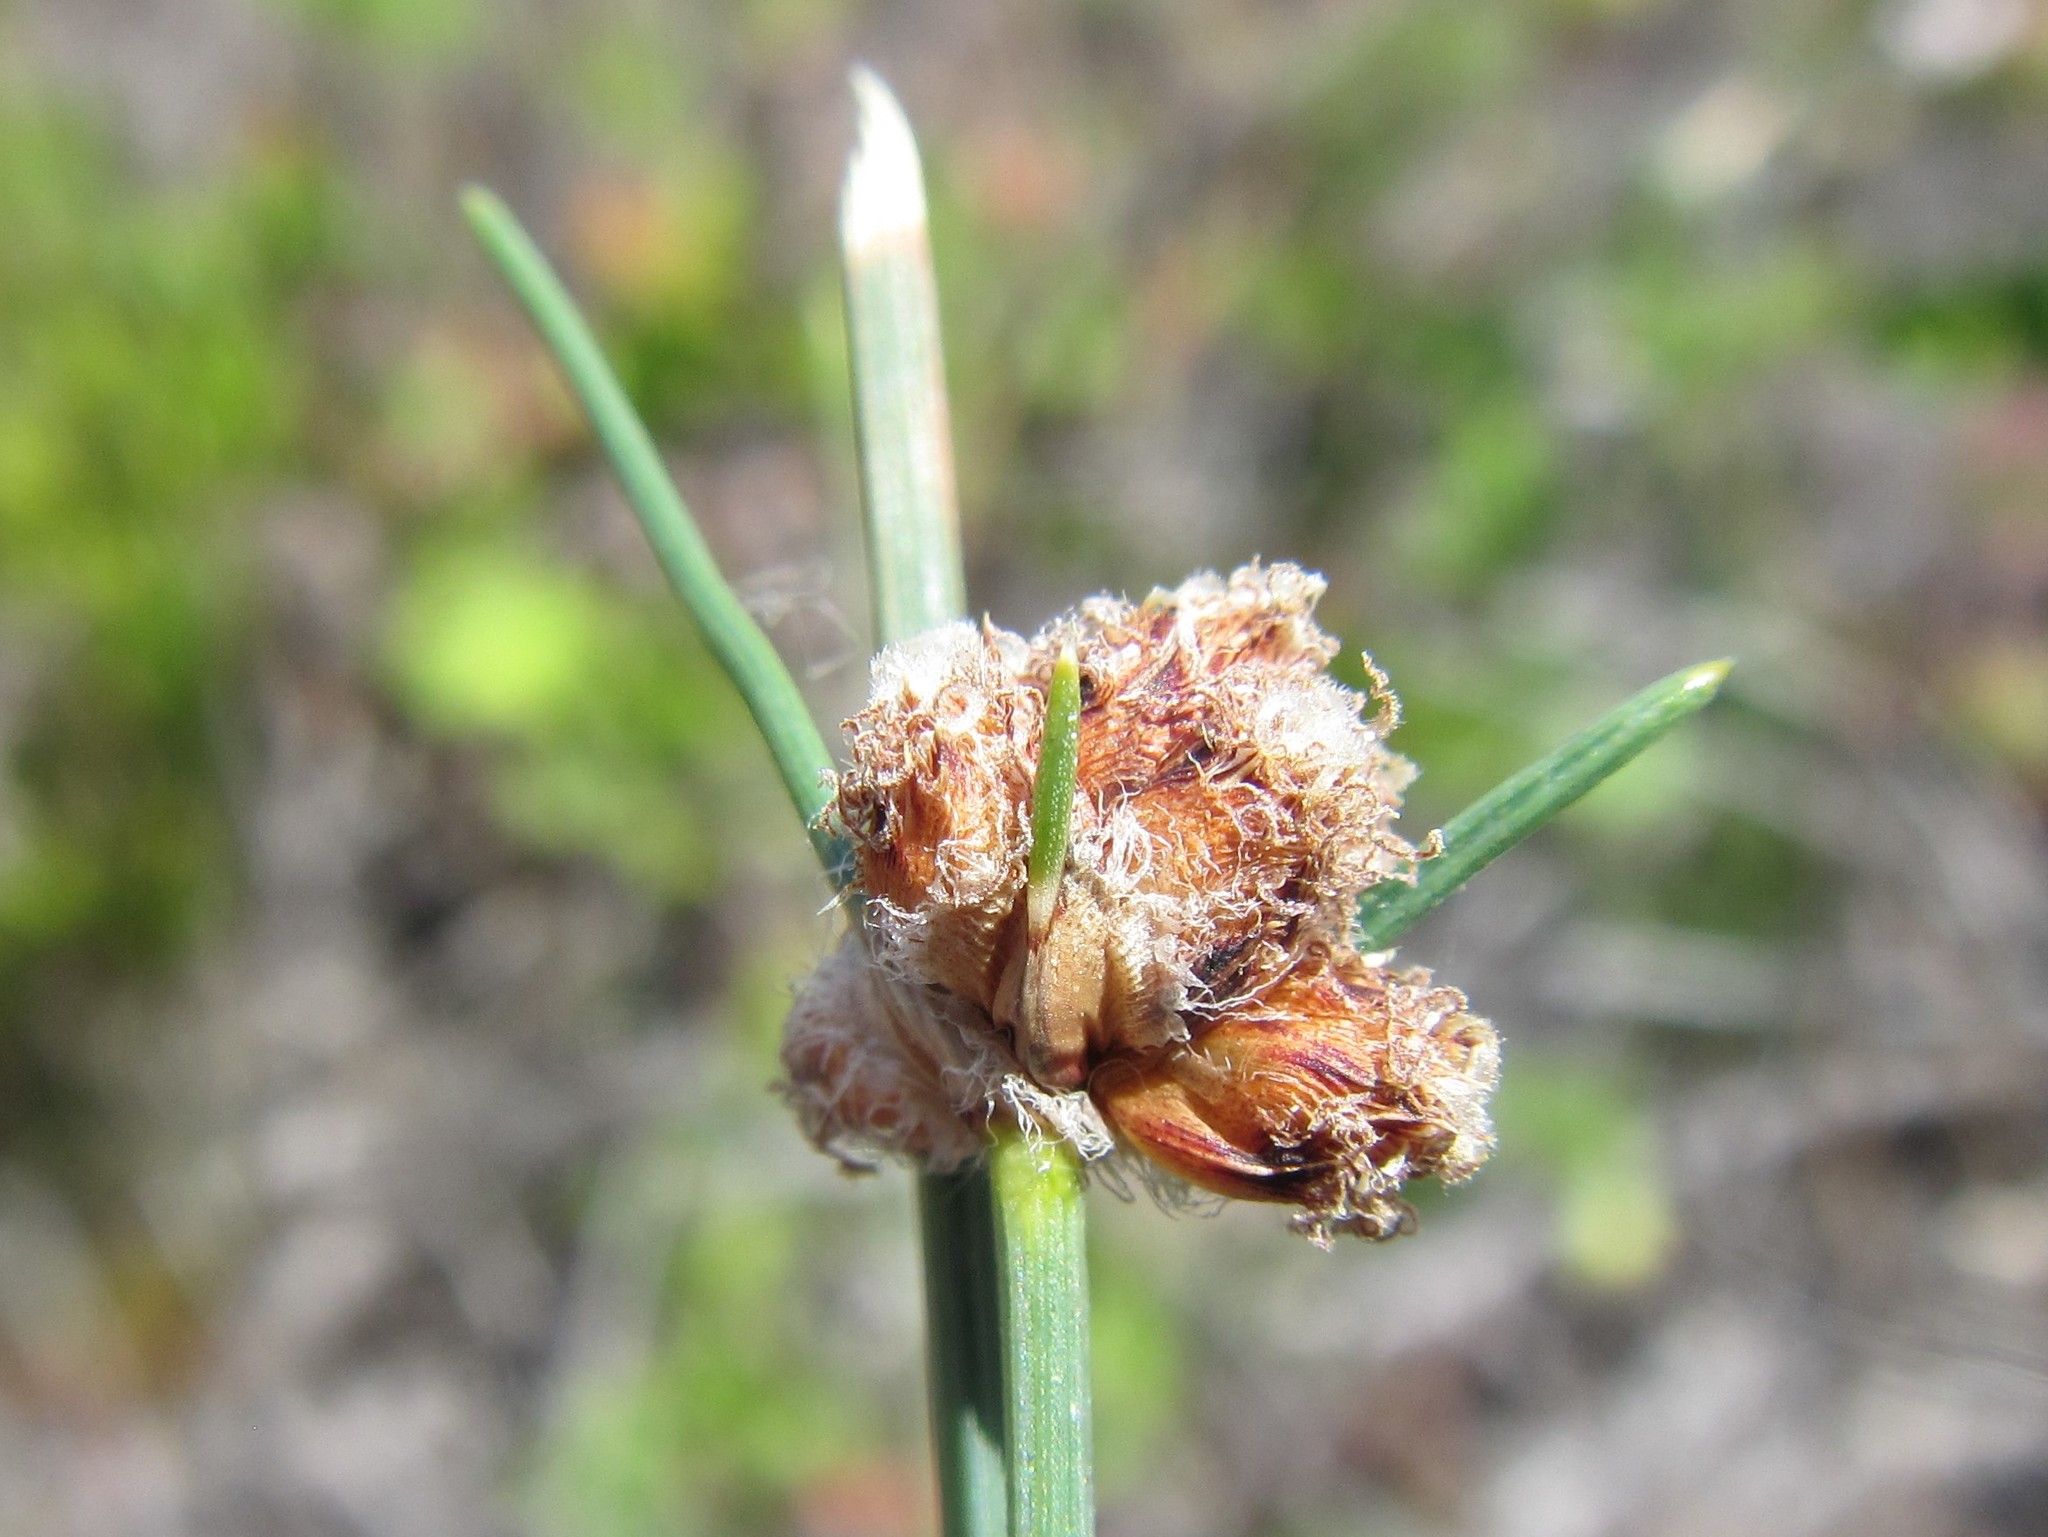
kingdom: Plantae
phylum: Tracheophyta
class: Liliopsida
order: Poales
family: Cyperaceae
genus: Ficinia
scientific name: Ficinia paradoxa
